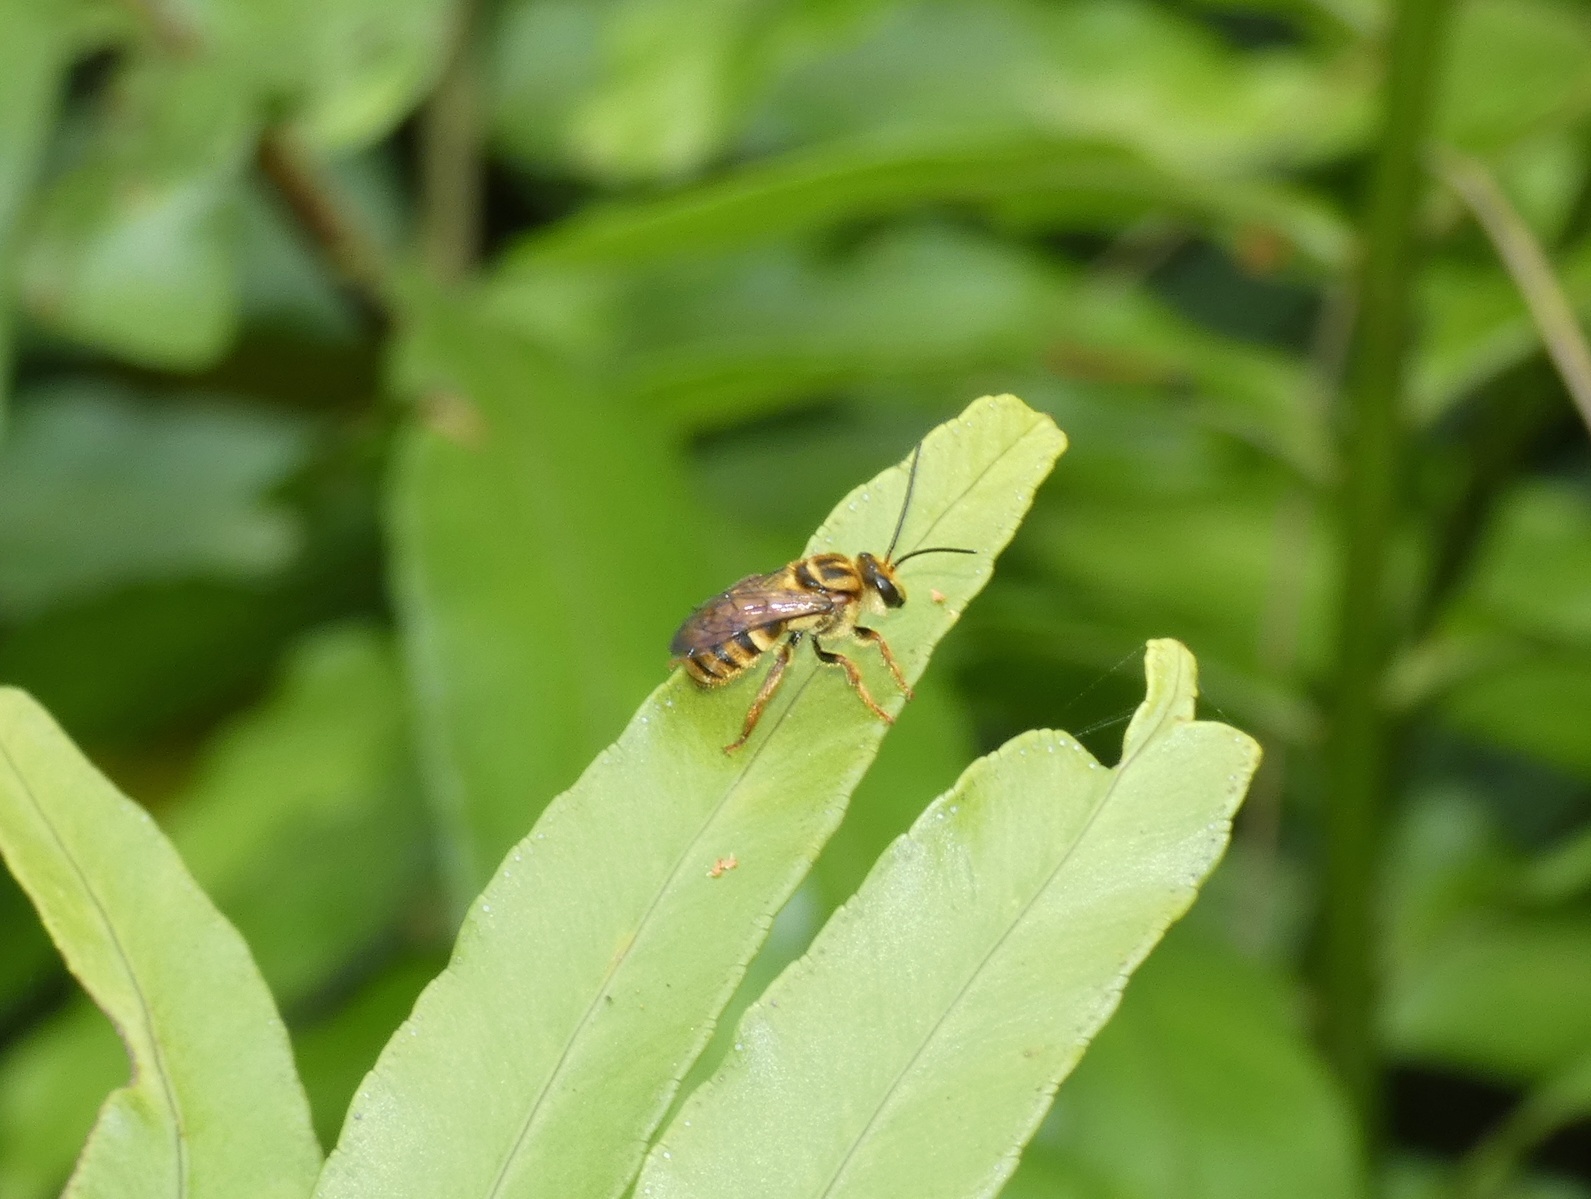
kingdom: Animalia
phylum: Arthropoda
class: Insecta
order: Hymenoptera
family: Halictidae
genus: Mellitidia
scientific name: Mellitidia tomentifera
